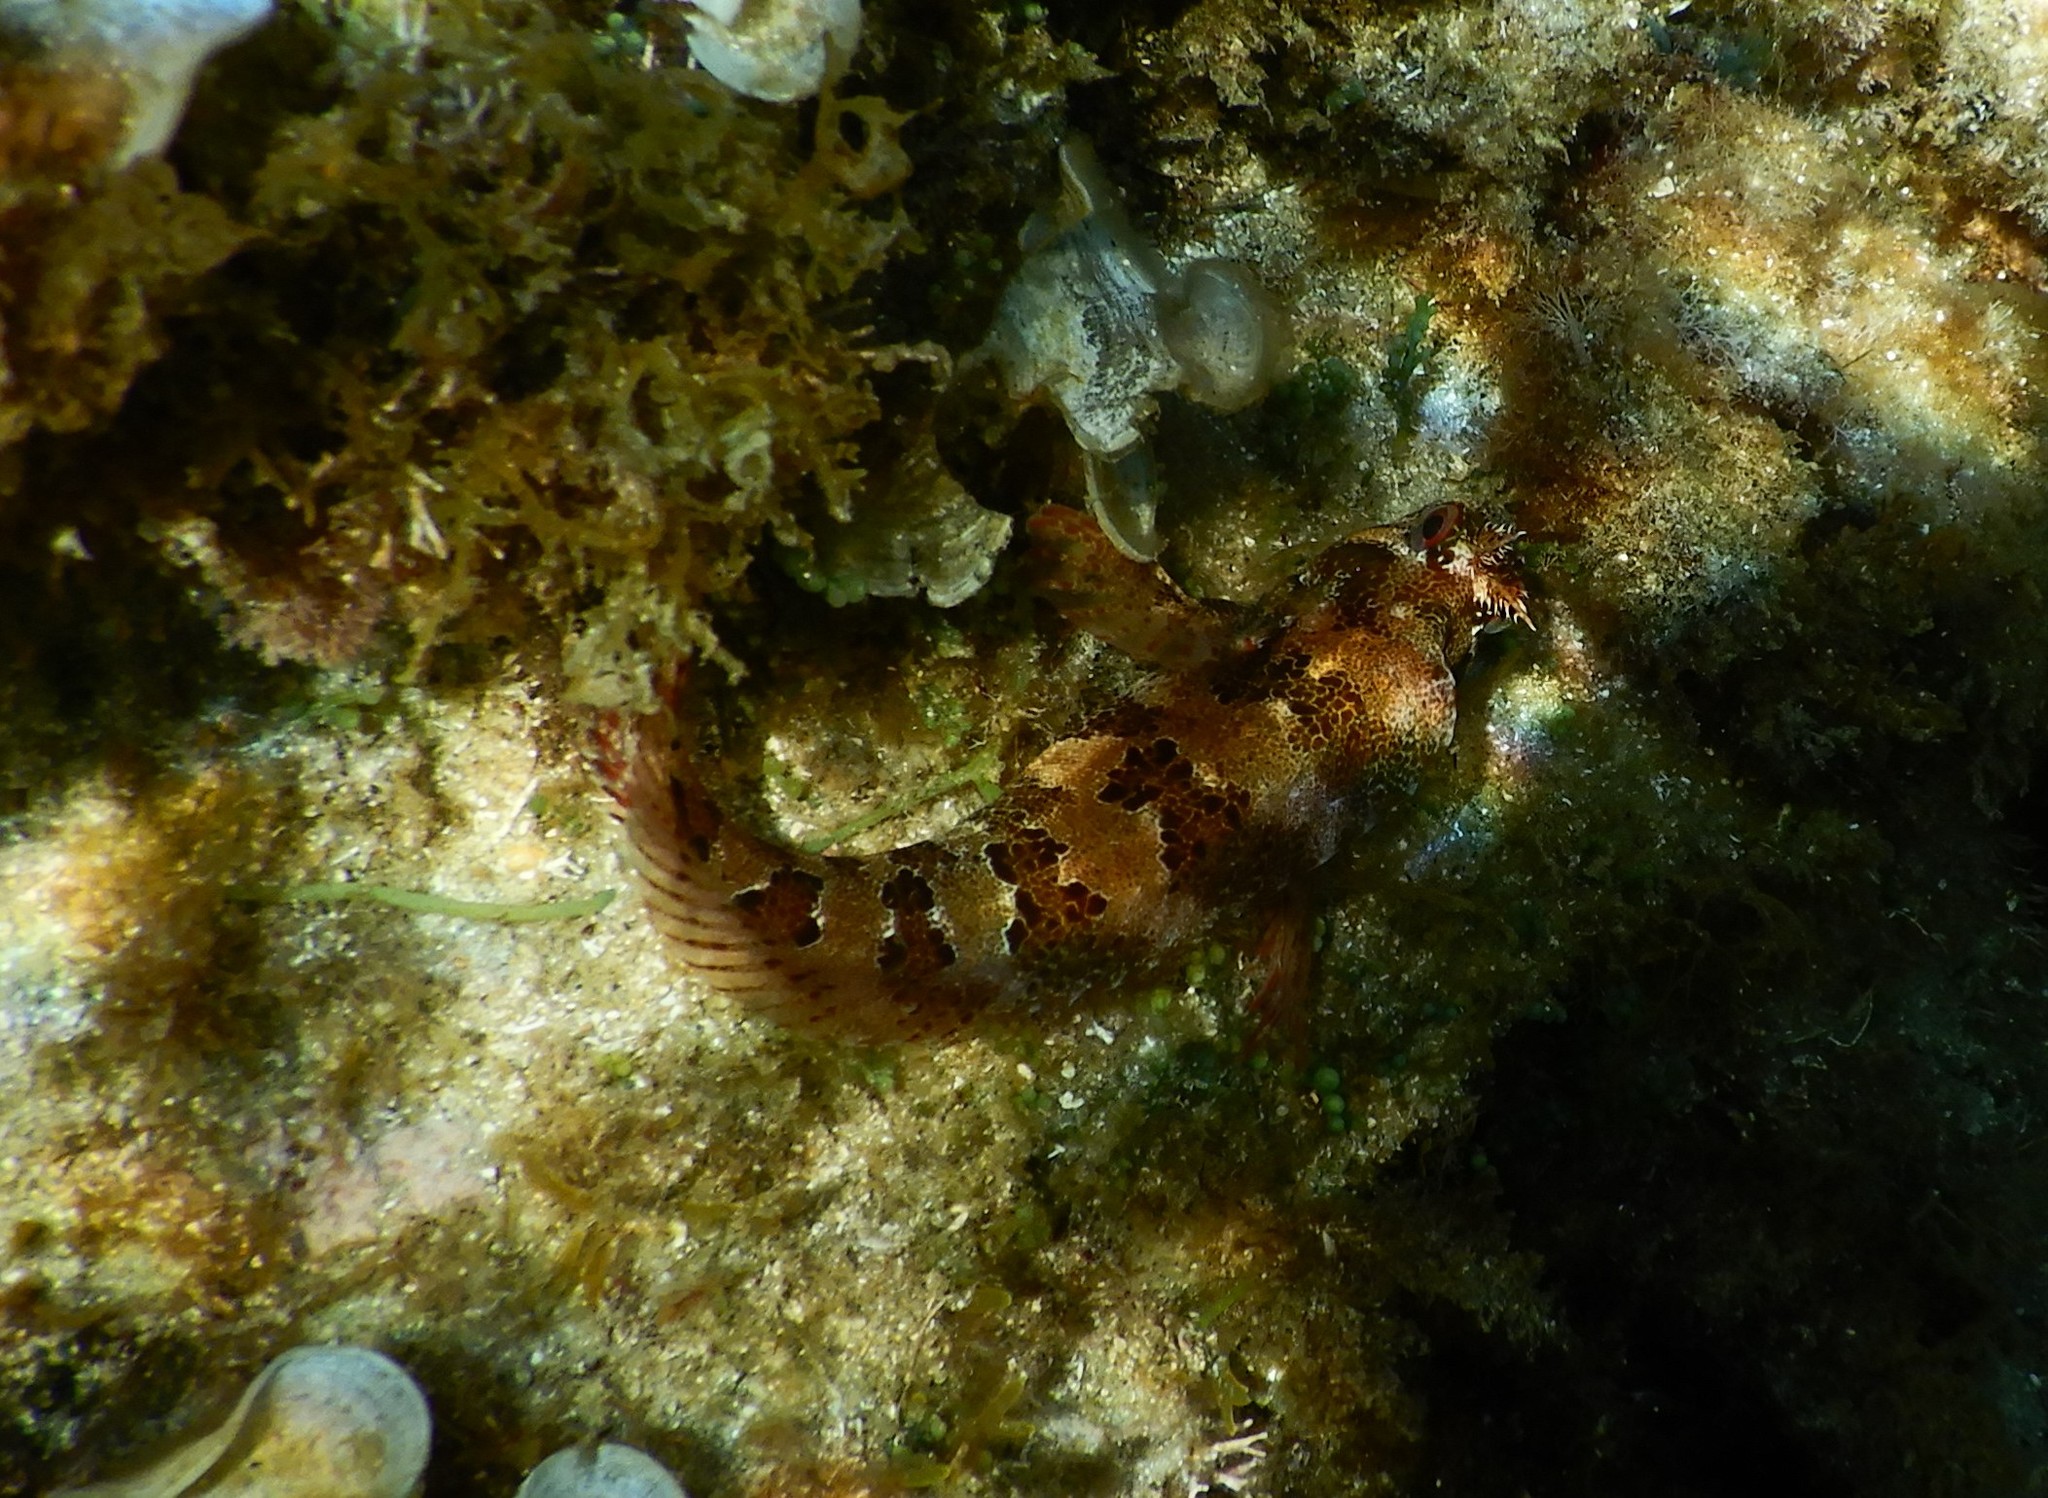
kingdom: Animalia
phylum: Chordata
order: Perciformes
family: Blenniidae
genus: Parablennius
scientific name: Parablennius gattorugine
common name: Tompot blenny
